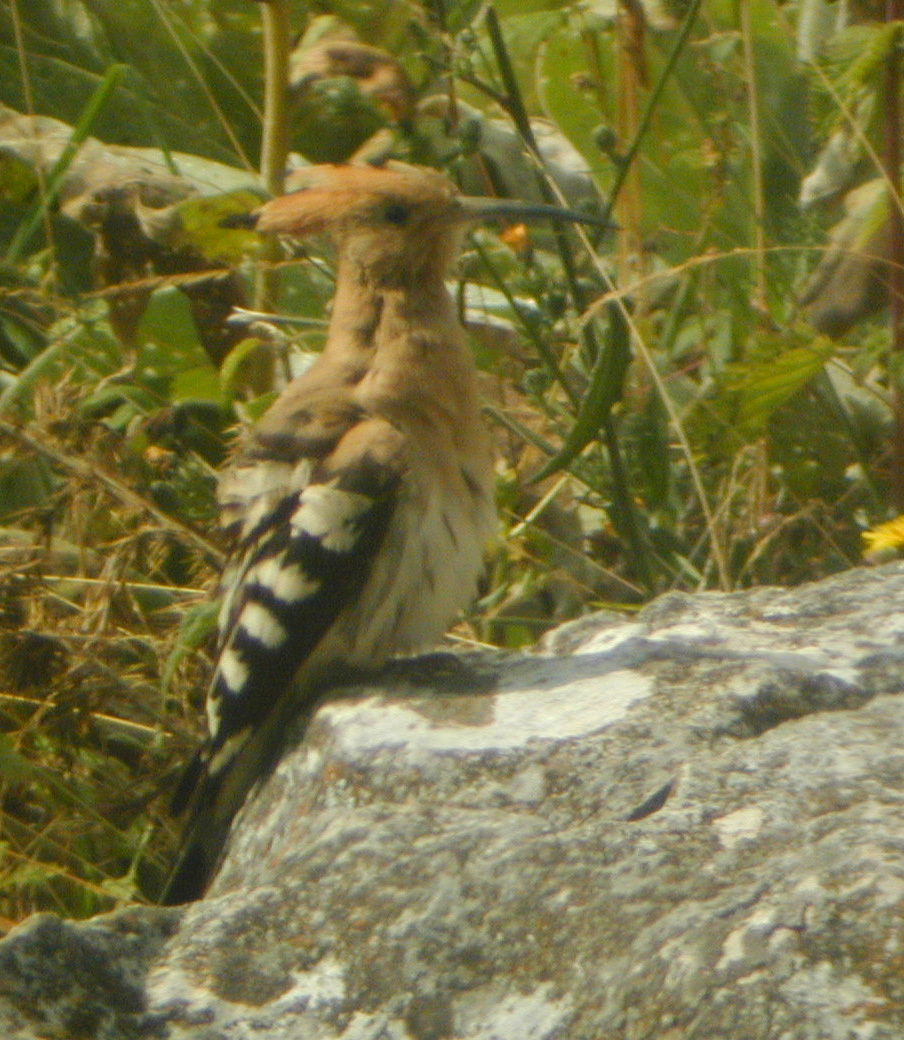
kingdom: Animalia
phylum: Chordata
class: Aves
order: Bucerotiformes
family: Upupidae
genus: Upupa
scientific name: Upupa epops
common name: Eurasian hoopoe
